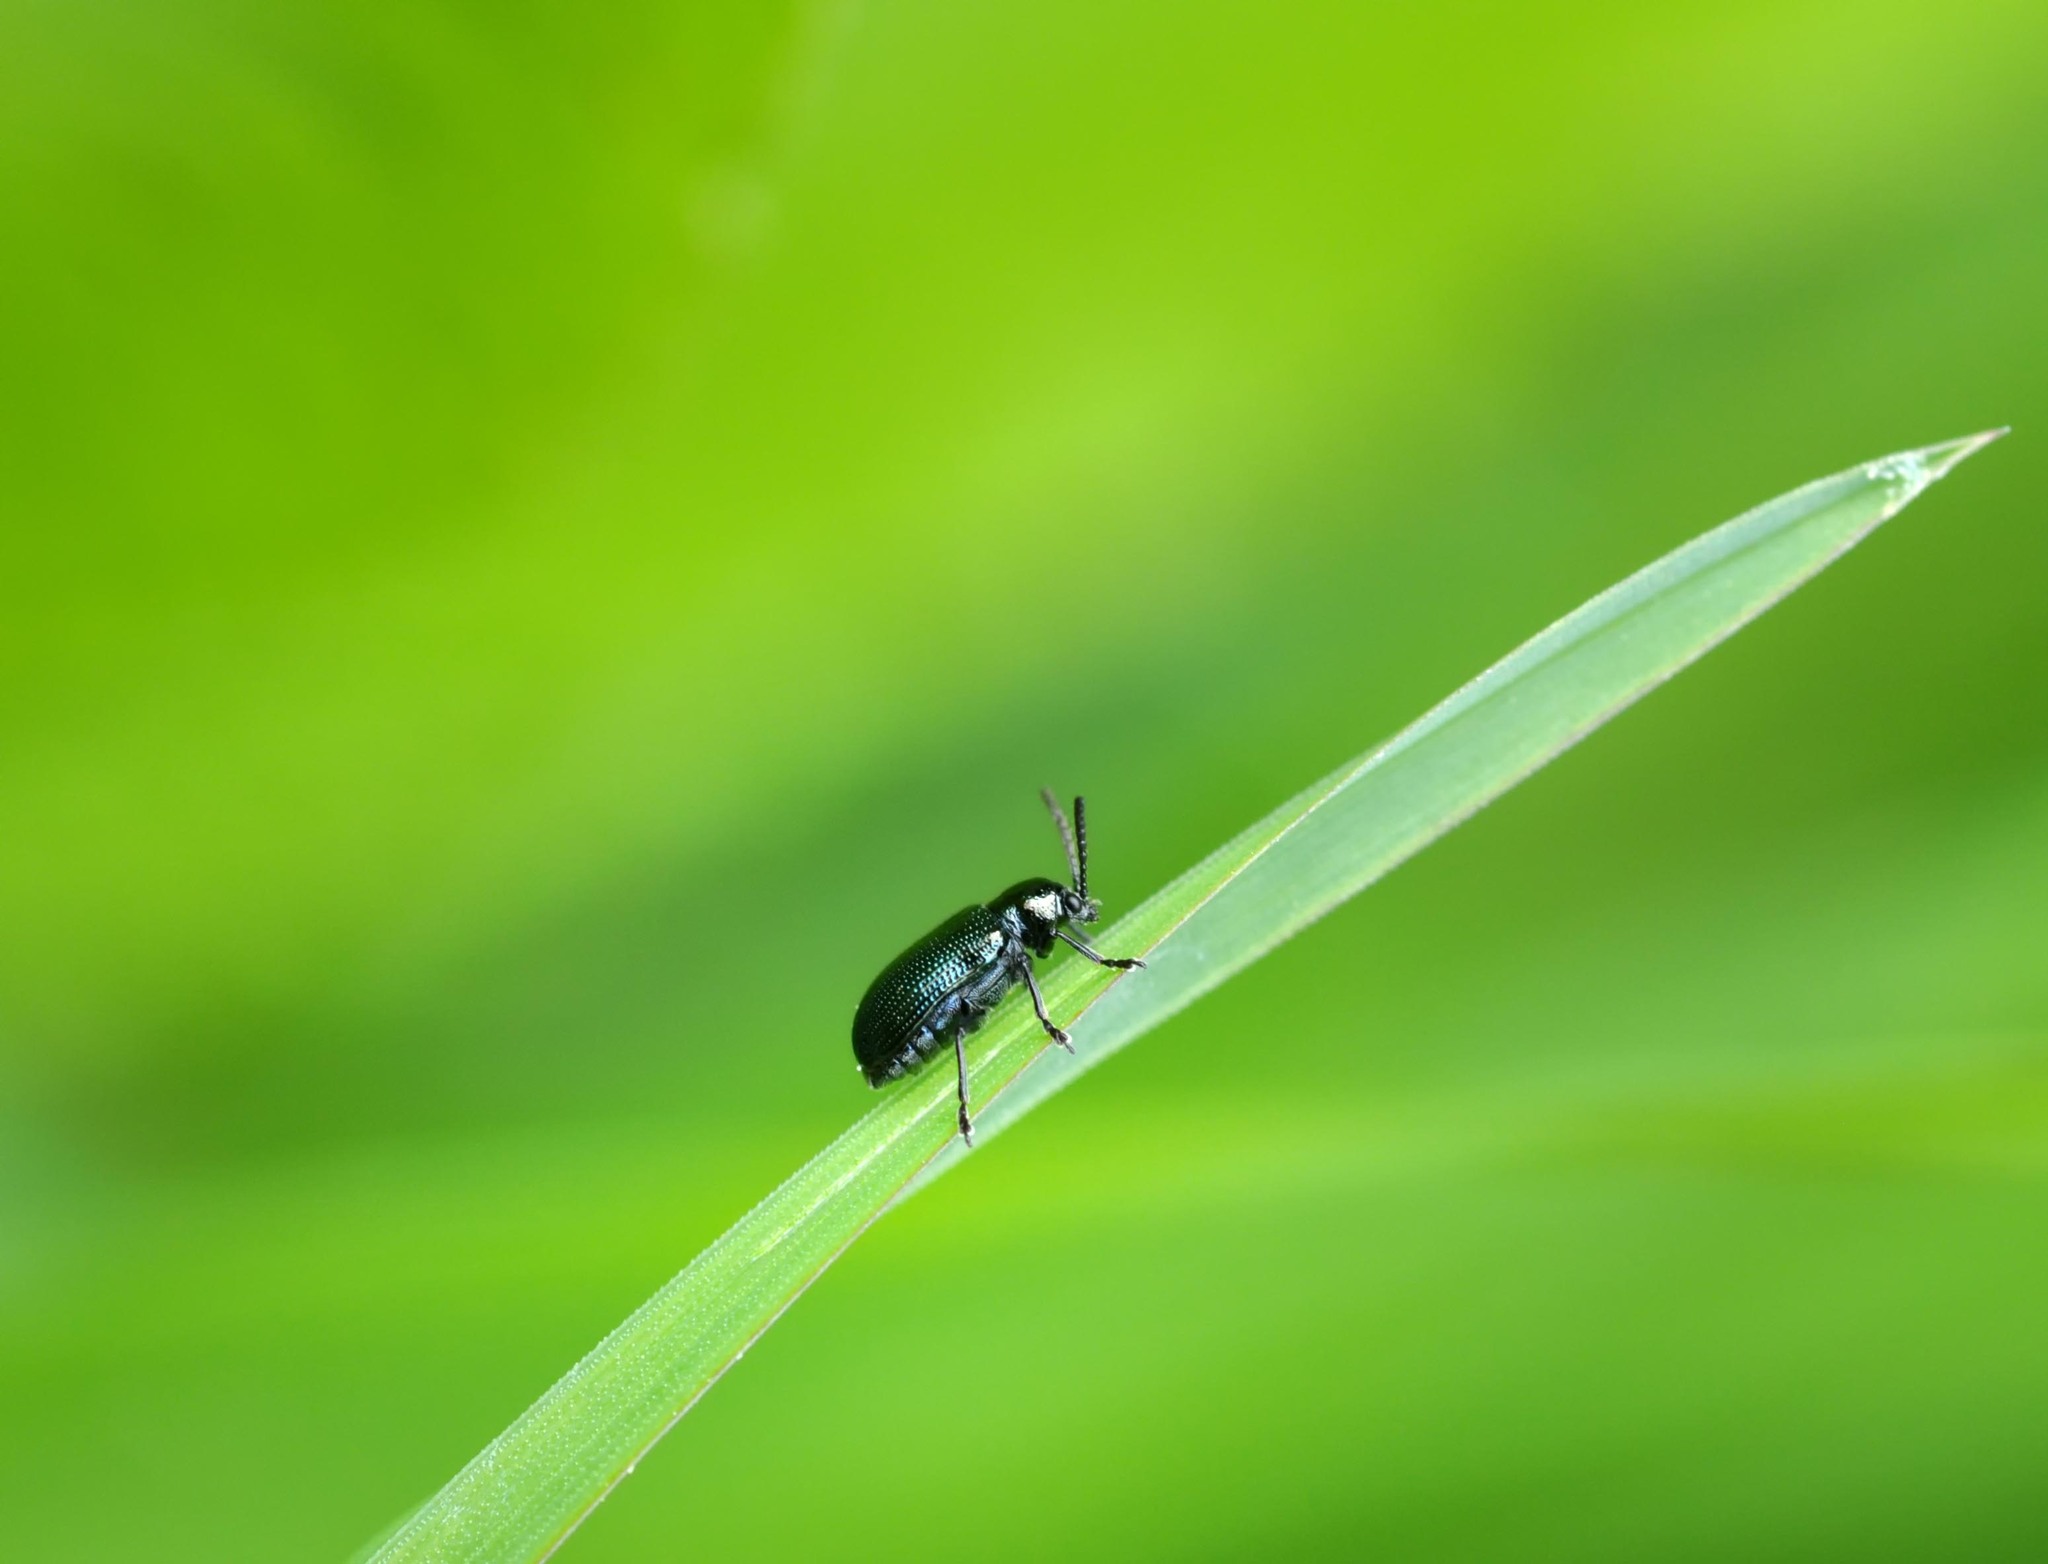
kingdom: Animalia
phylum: Arthropoda
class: Insecta
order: Coleoptera
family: Chrysomelidae
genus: Oulema
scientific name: Oulema gallaeciana
